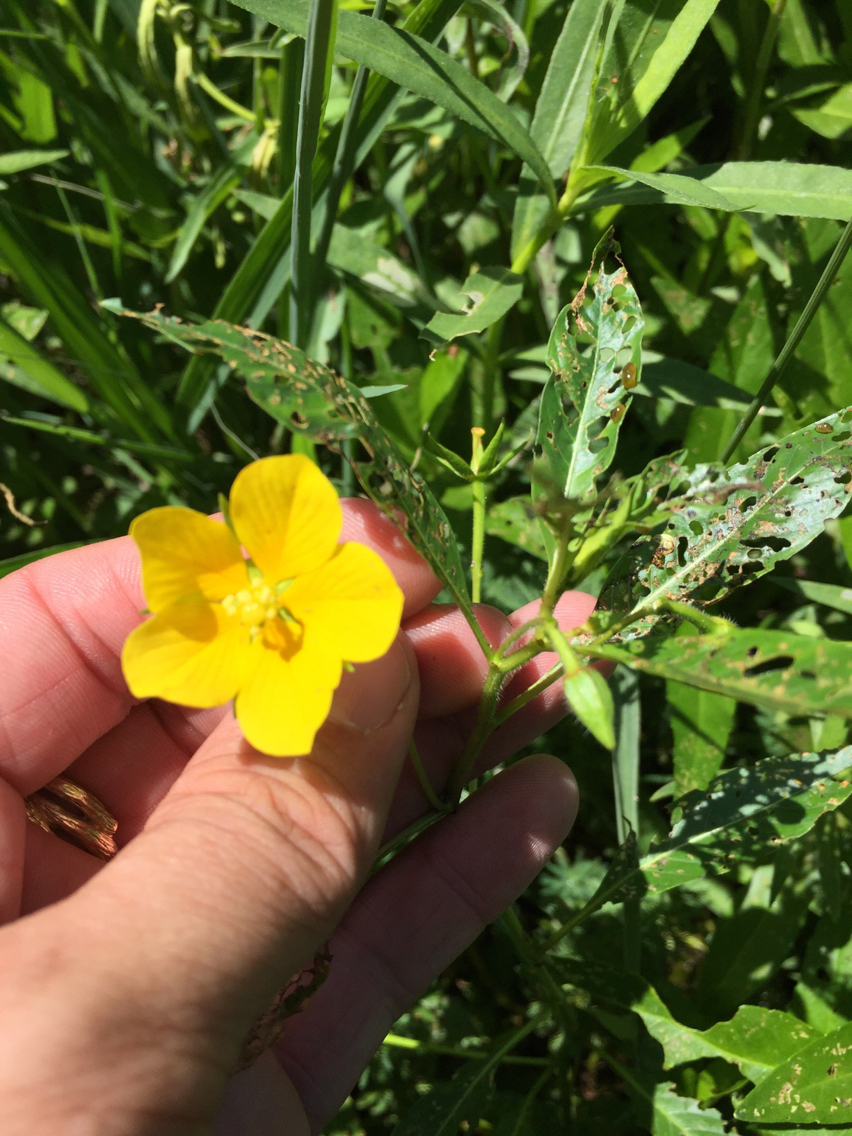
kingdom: Plantae
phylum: Tracheophyta
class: Magnoliopsida
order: Myrtales
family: Onagraceae
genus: Ludwigia
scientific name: Ludwigia peploides
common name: Floating primrose-willow
